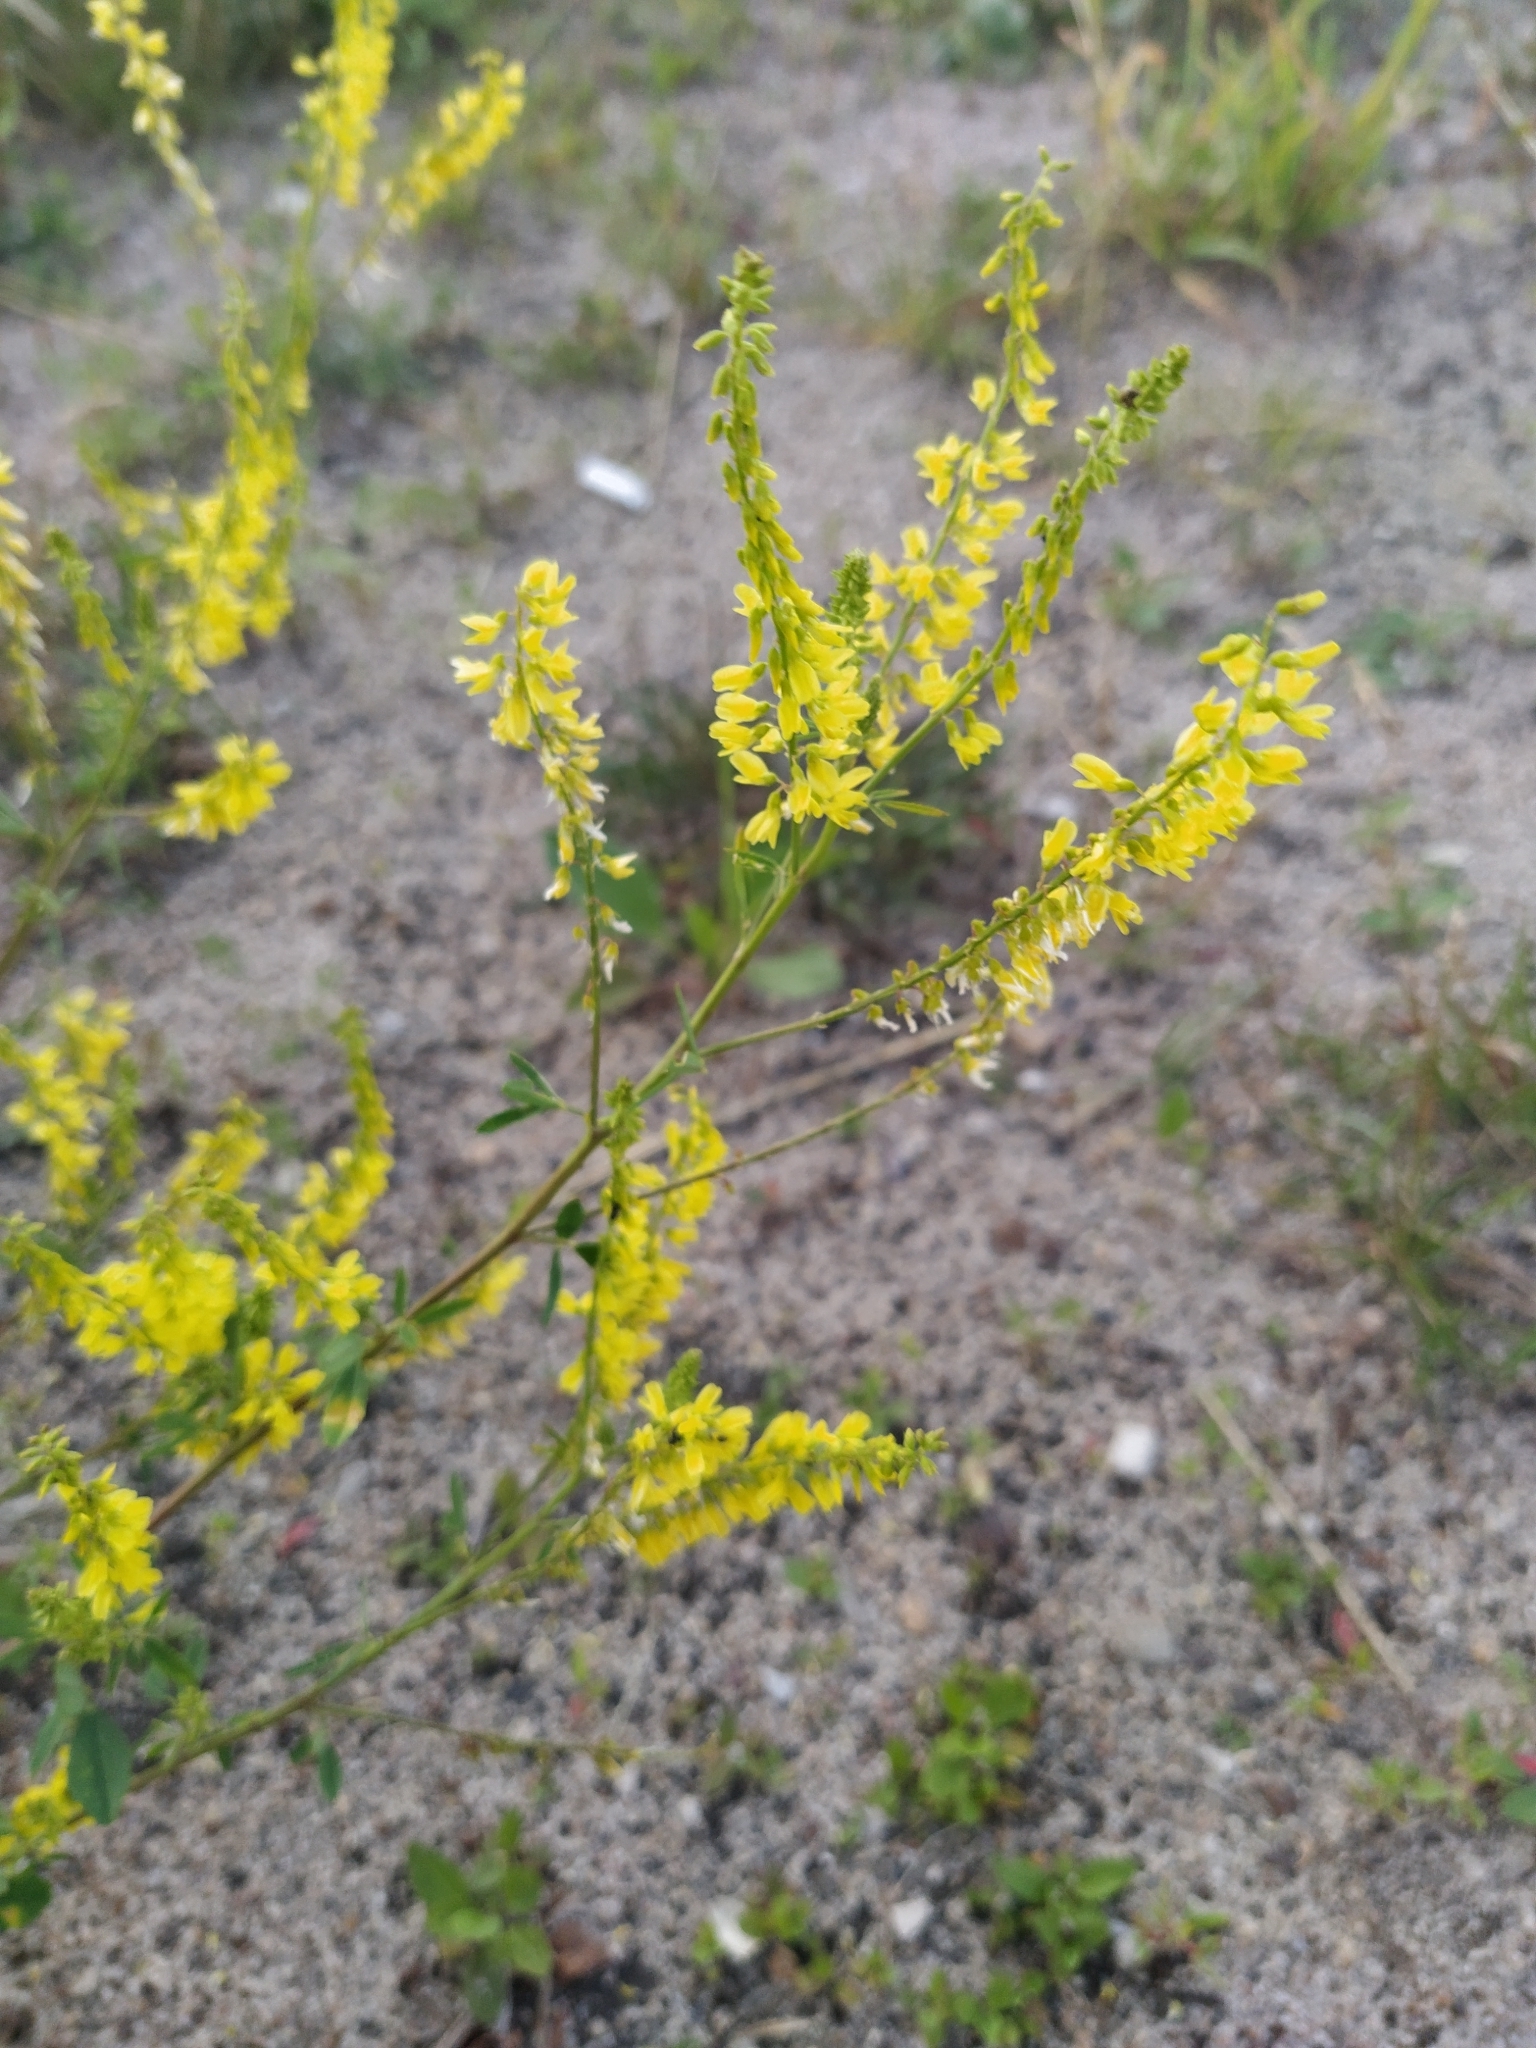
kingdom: Plantae
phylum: Tracheophyta
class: Magnoliopsida
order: Fabales
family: Fabaceae
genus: Melilotus
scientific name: Melilotus officinalis
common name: Sweetclover
